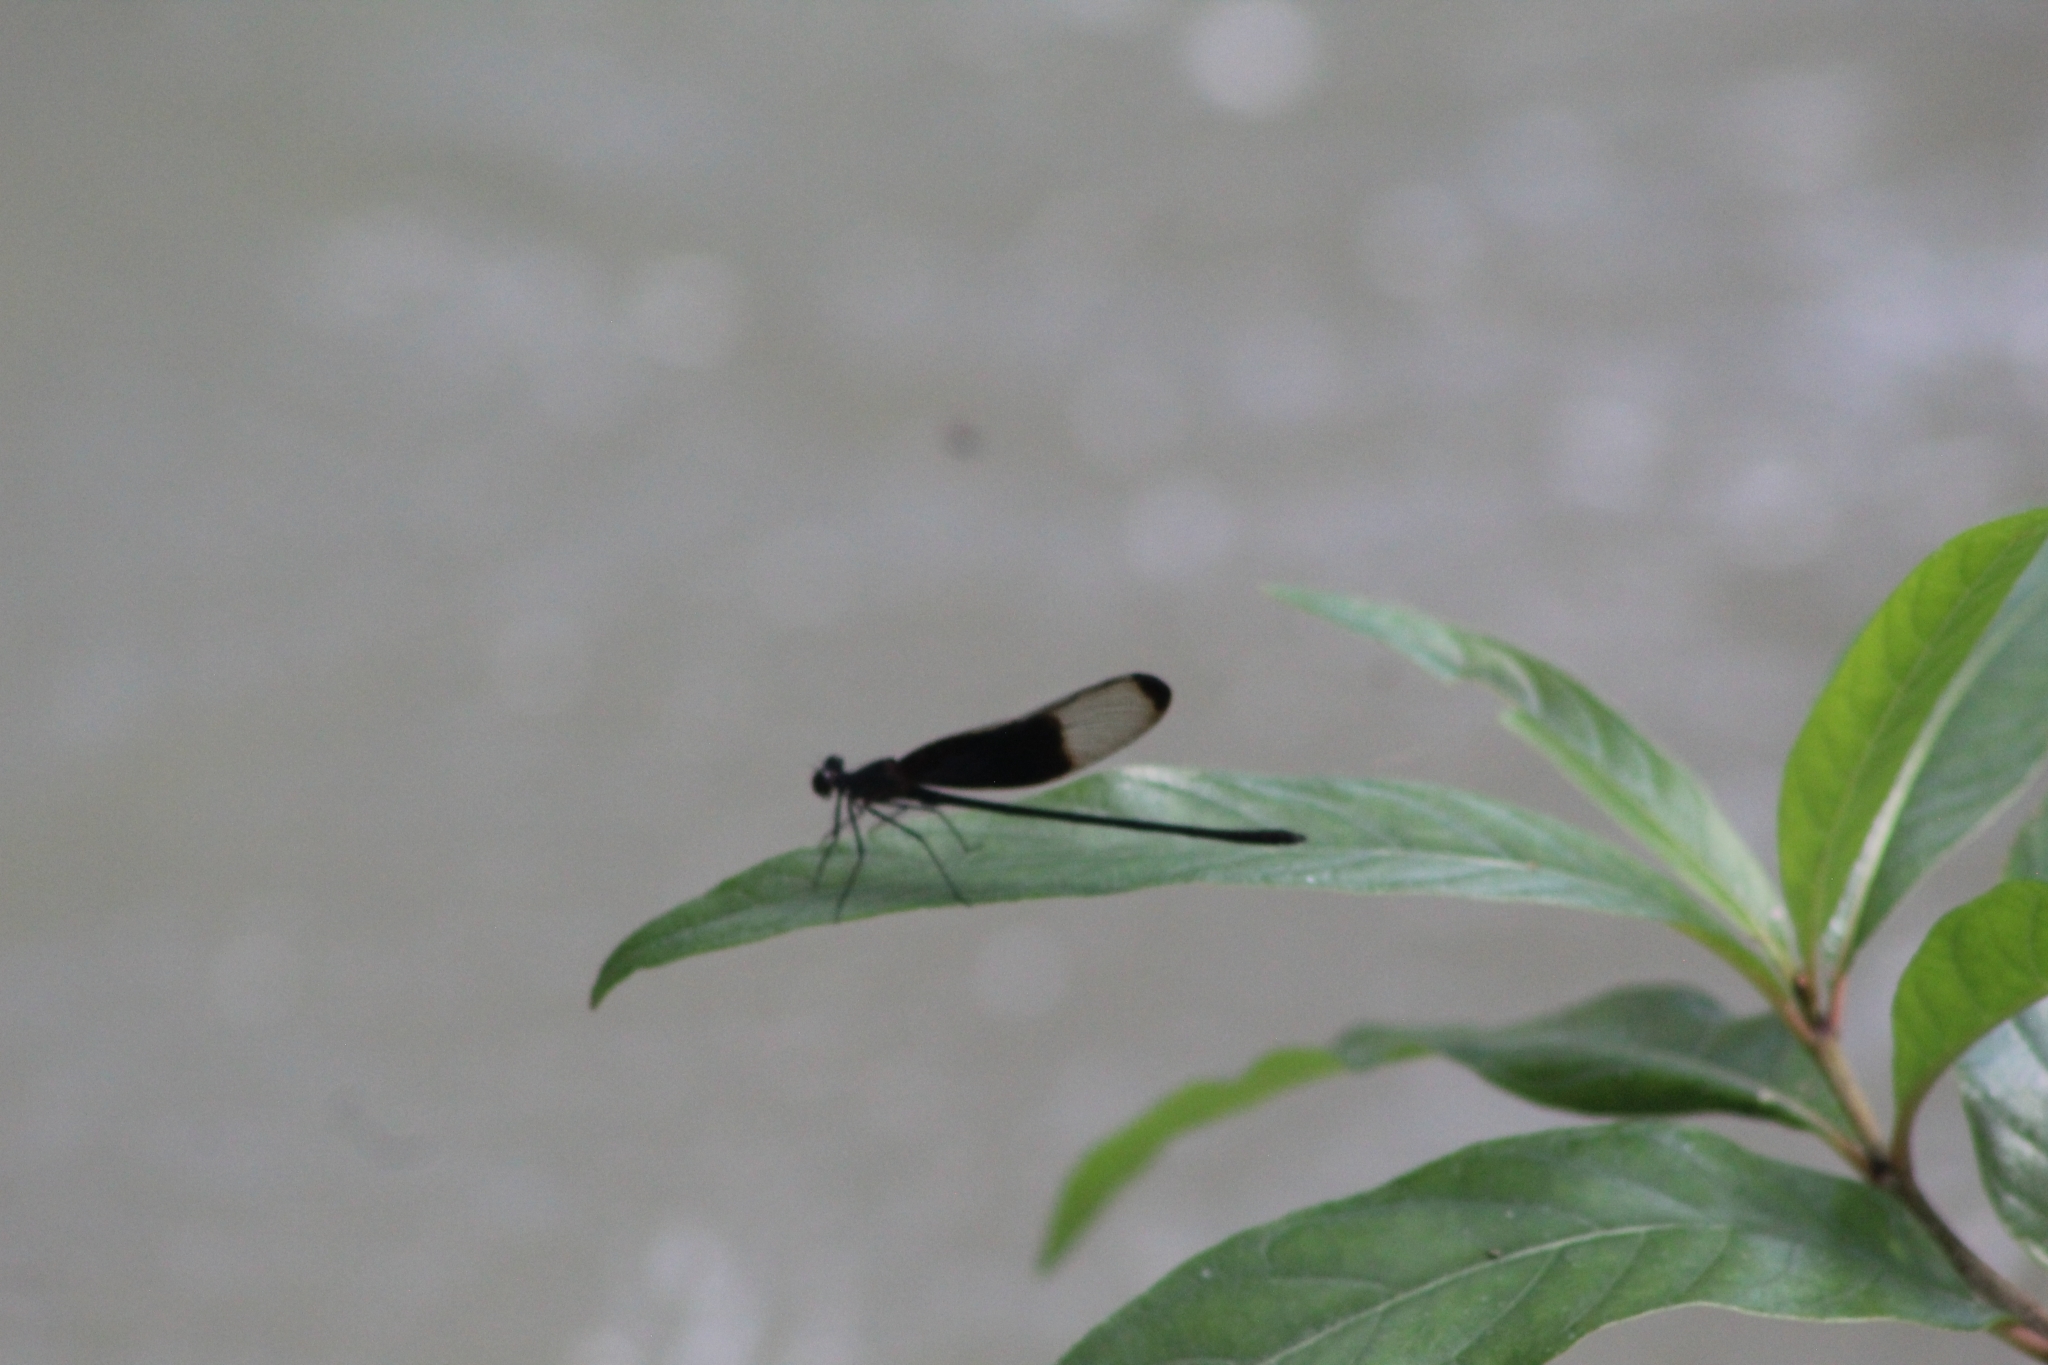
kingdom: Animalia
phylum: Arthropoda
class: Insecta
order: Odonata
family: Calopterygidae
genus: Hetaerina
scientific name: Hetaerina titia
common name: Smoky rubyspot
